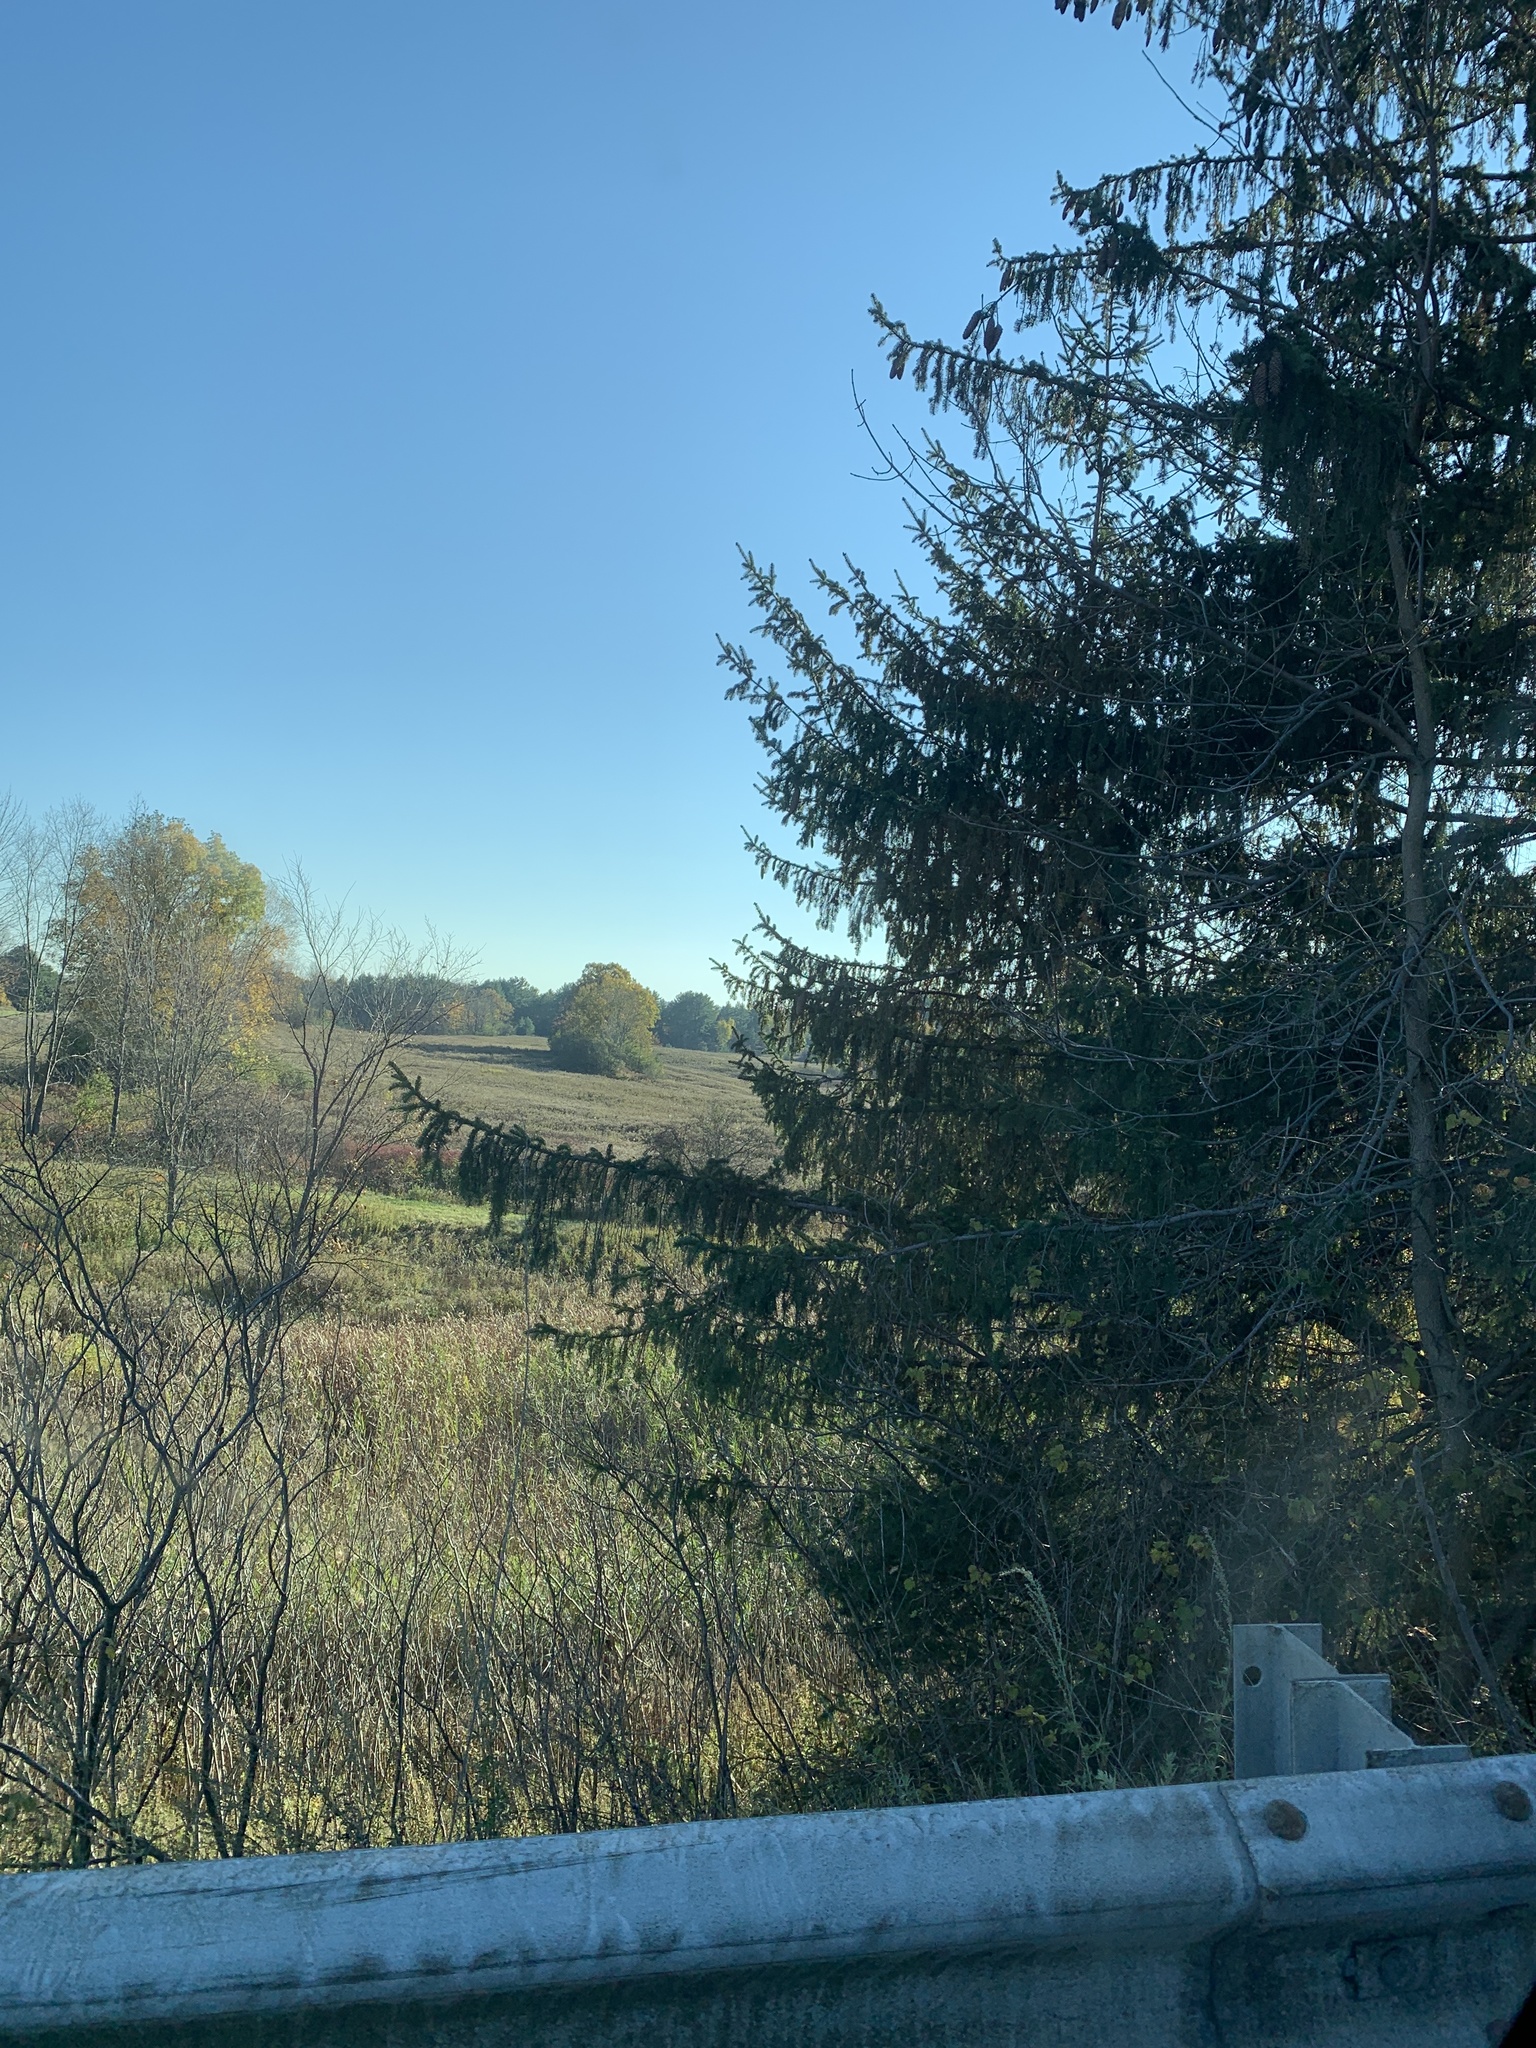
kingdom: Plantae
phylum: Tracheophyta
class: Pinopsida
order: Pinales
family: Pinaceae
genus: Picea
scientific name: Picea abies
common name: Norway spruce
